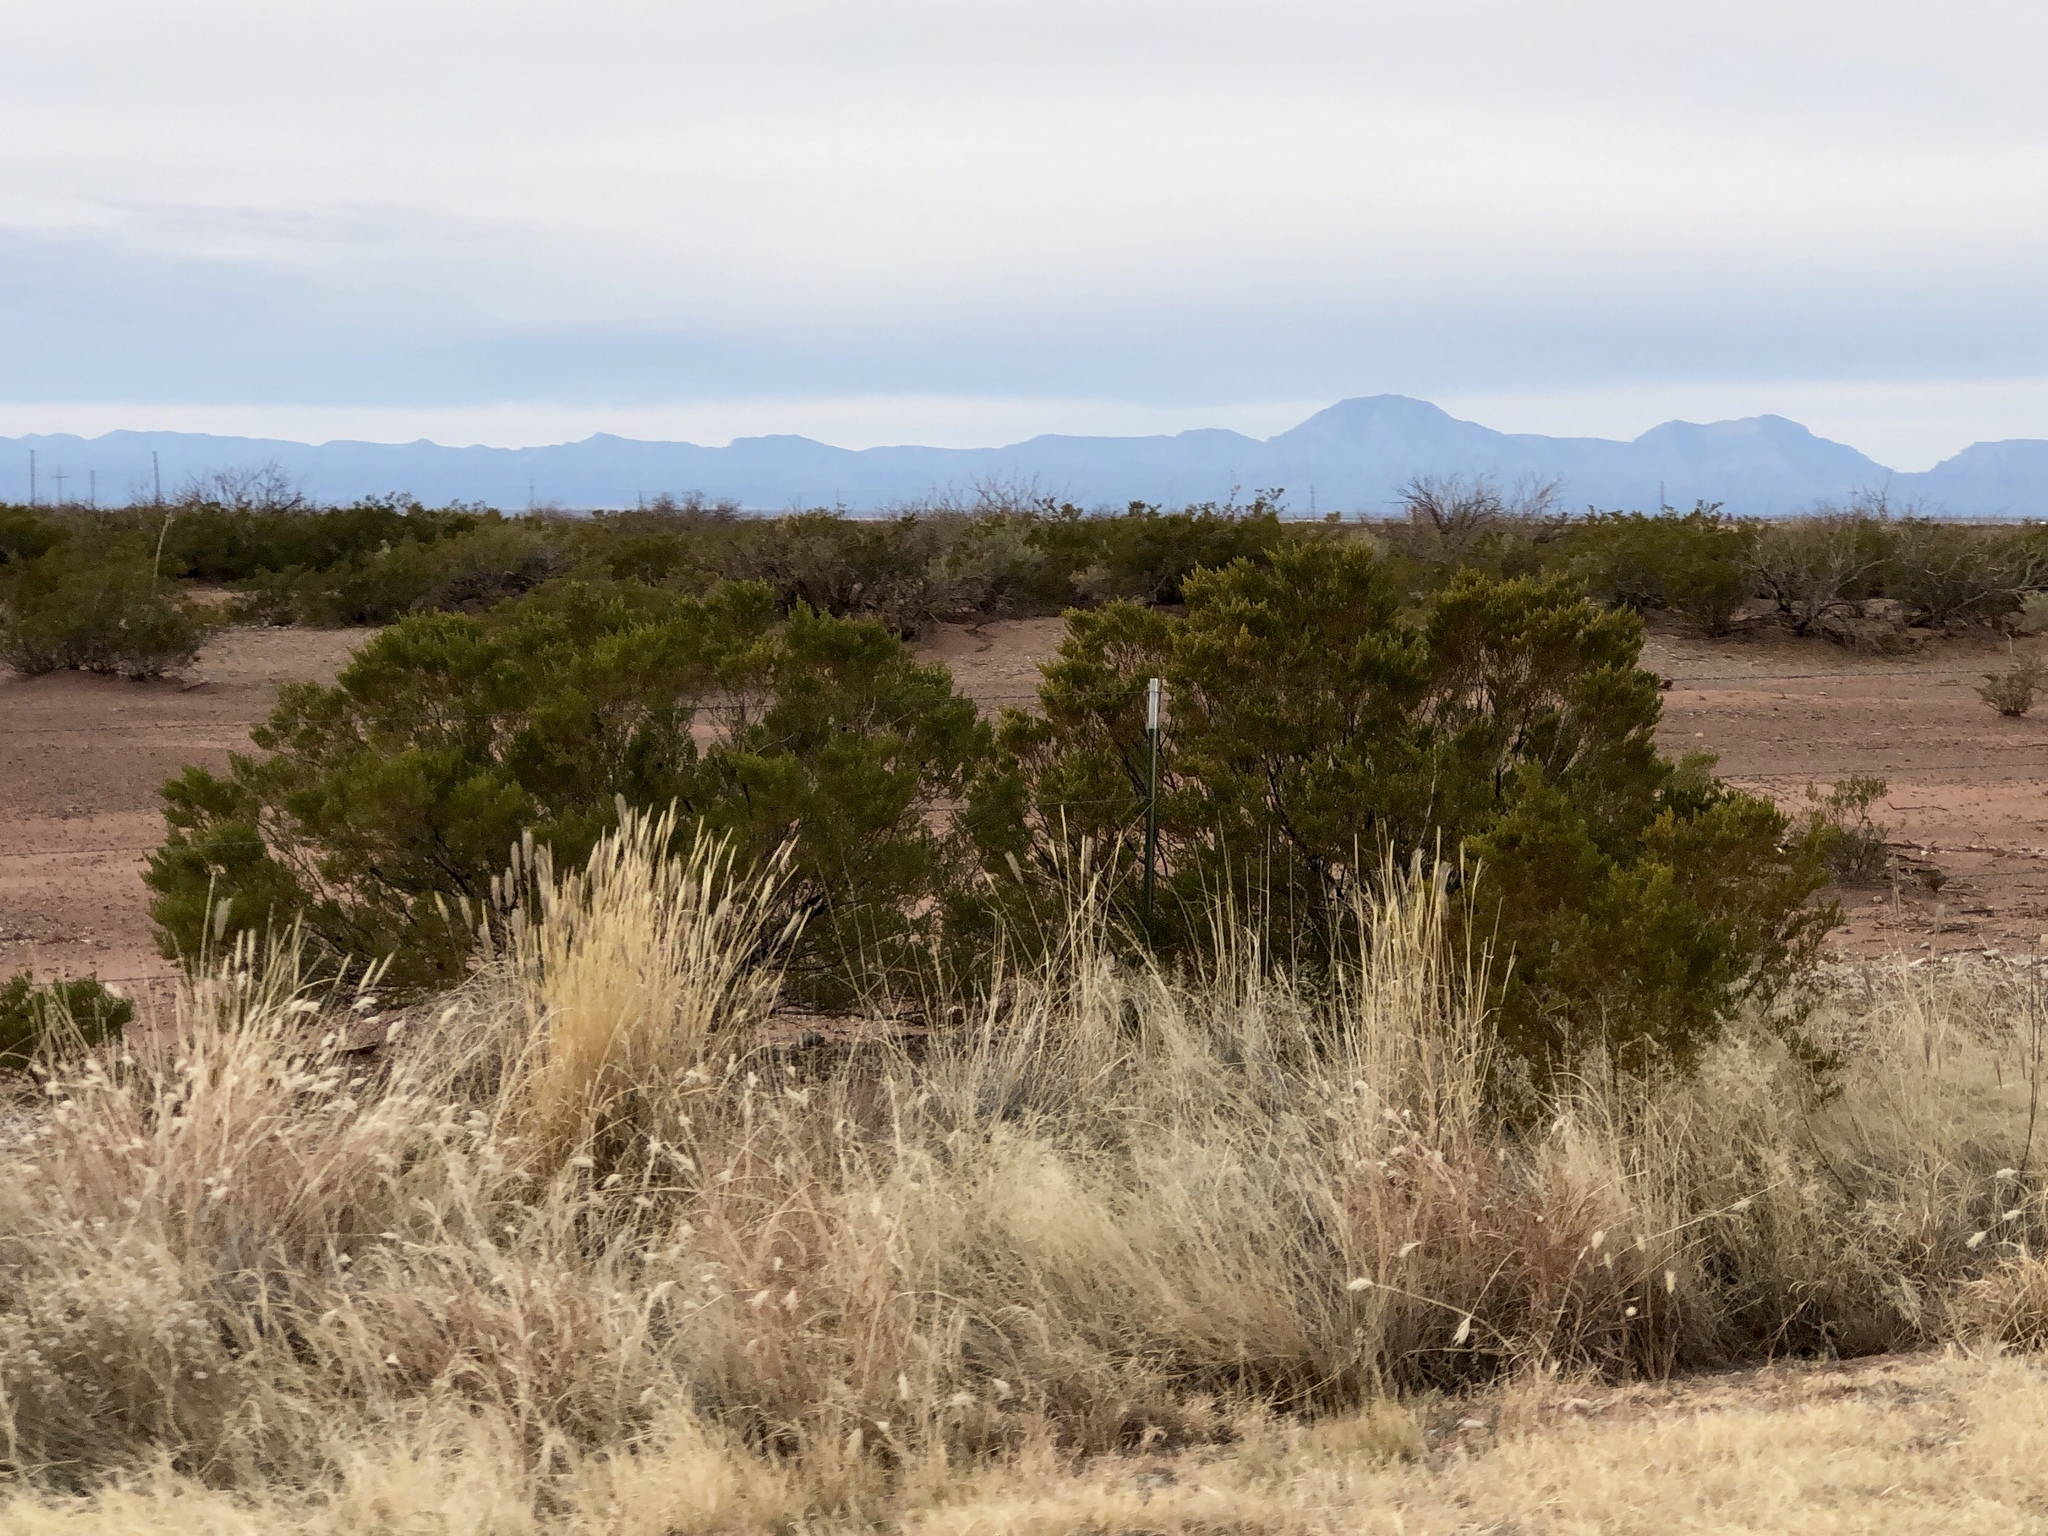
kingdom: Plantae
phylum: Tracheophyta
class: Magnoliopsida
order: Zygophyllales
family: Zygophyllaceae
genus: Larrea
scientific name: Larrea tridentata
